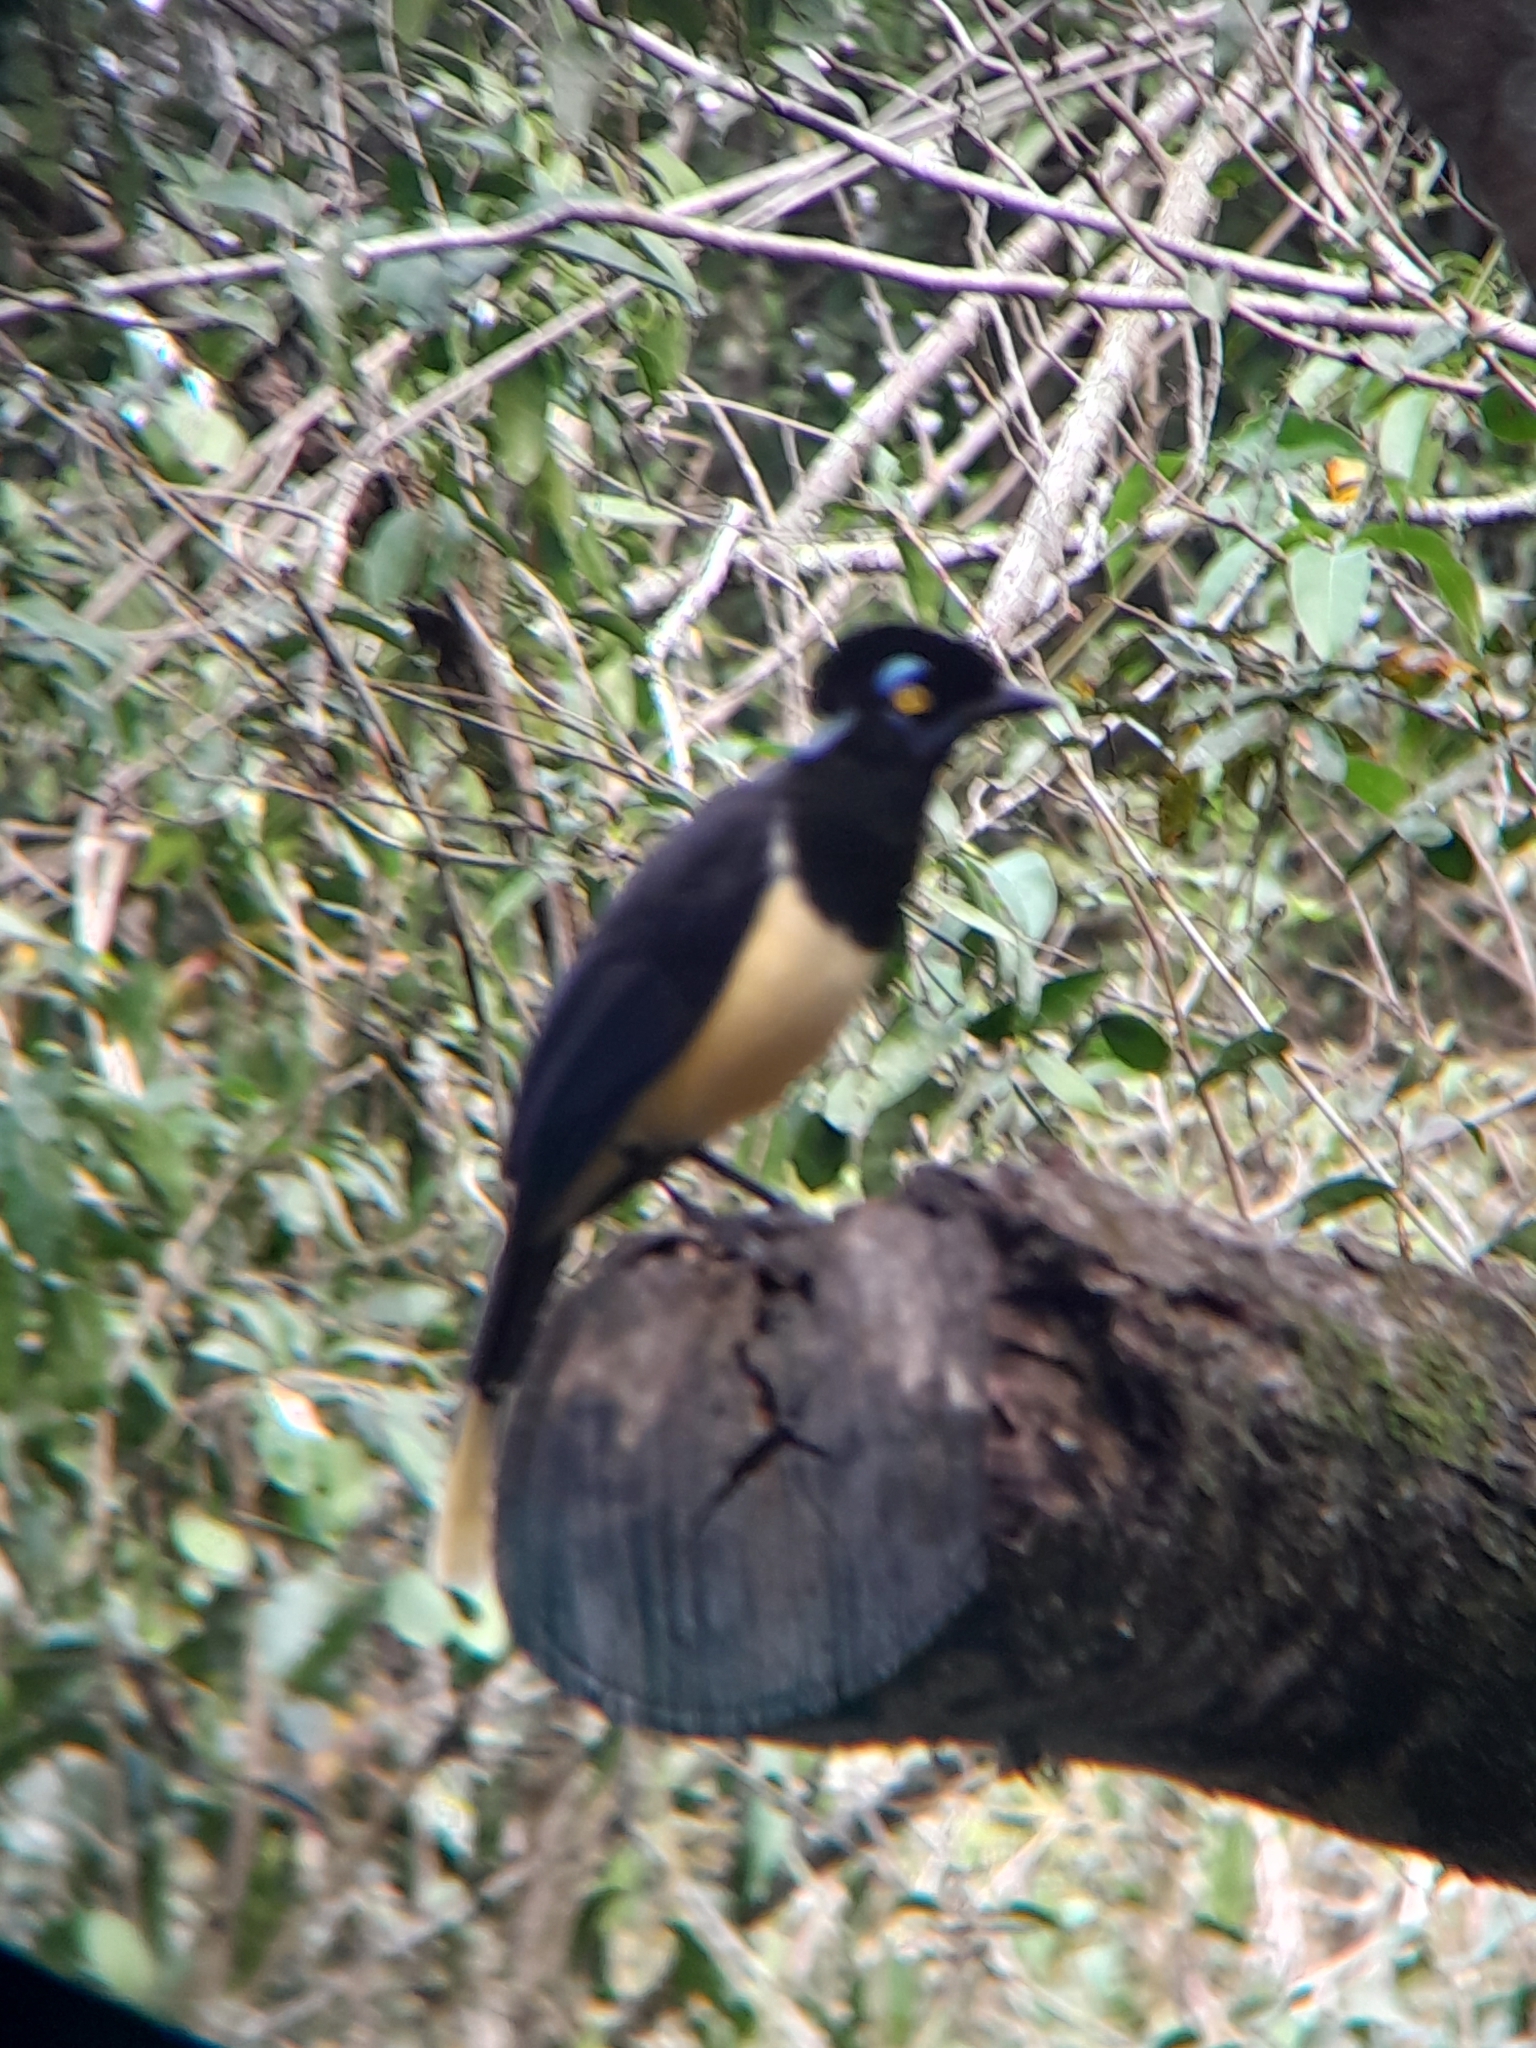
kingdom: Animalia
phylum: Chordata
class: Aves
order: Passeriformes
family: Corvidae
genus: Cyanocorax
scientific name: Cyanocorax chrysops
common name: Plush-crested jay
